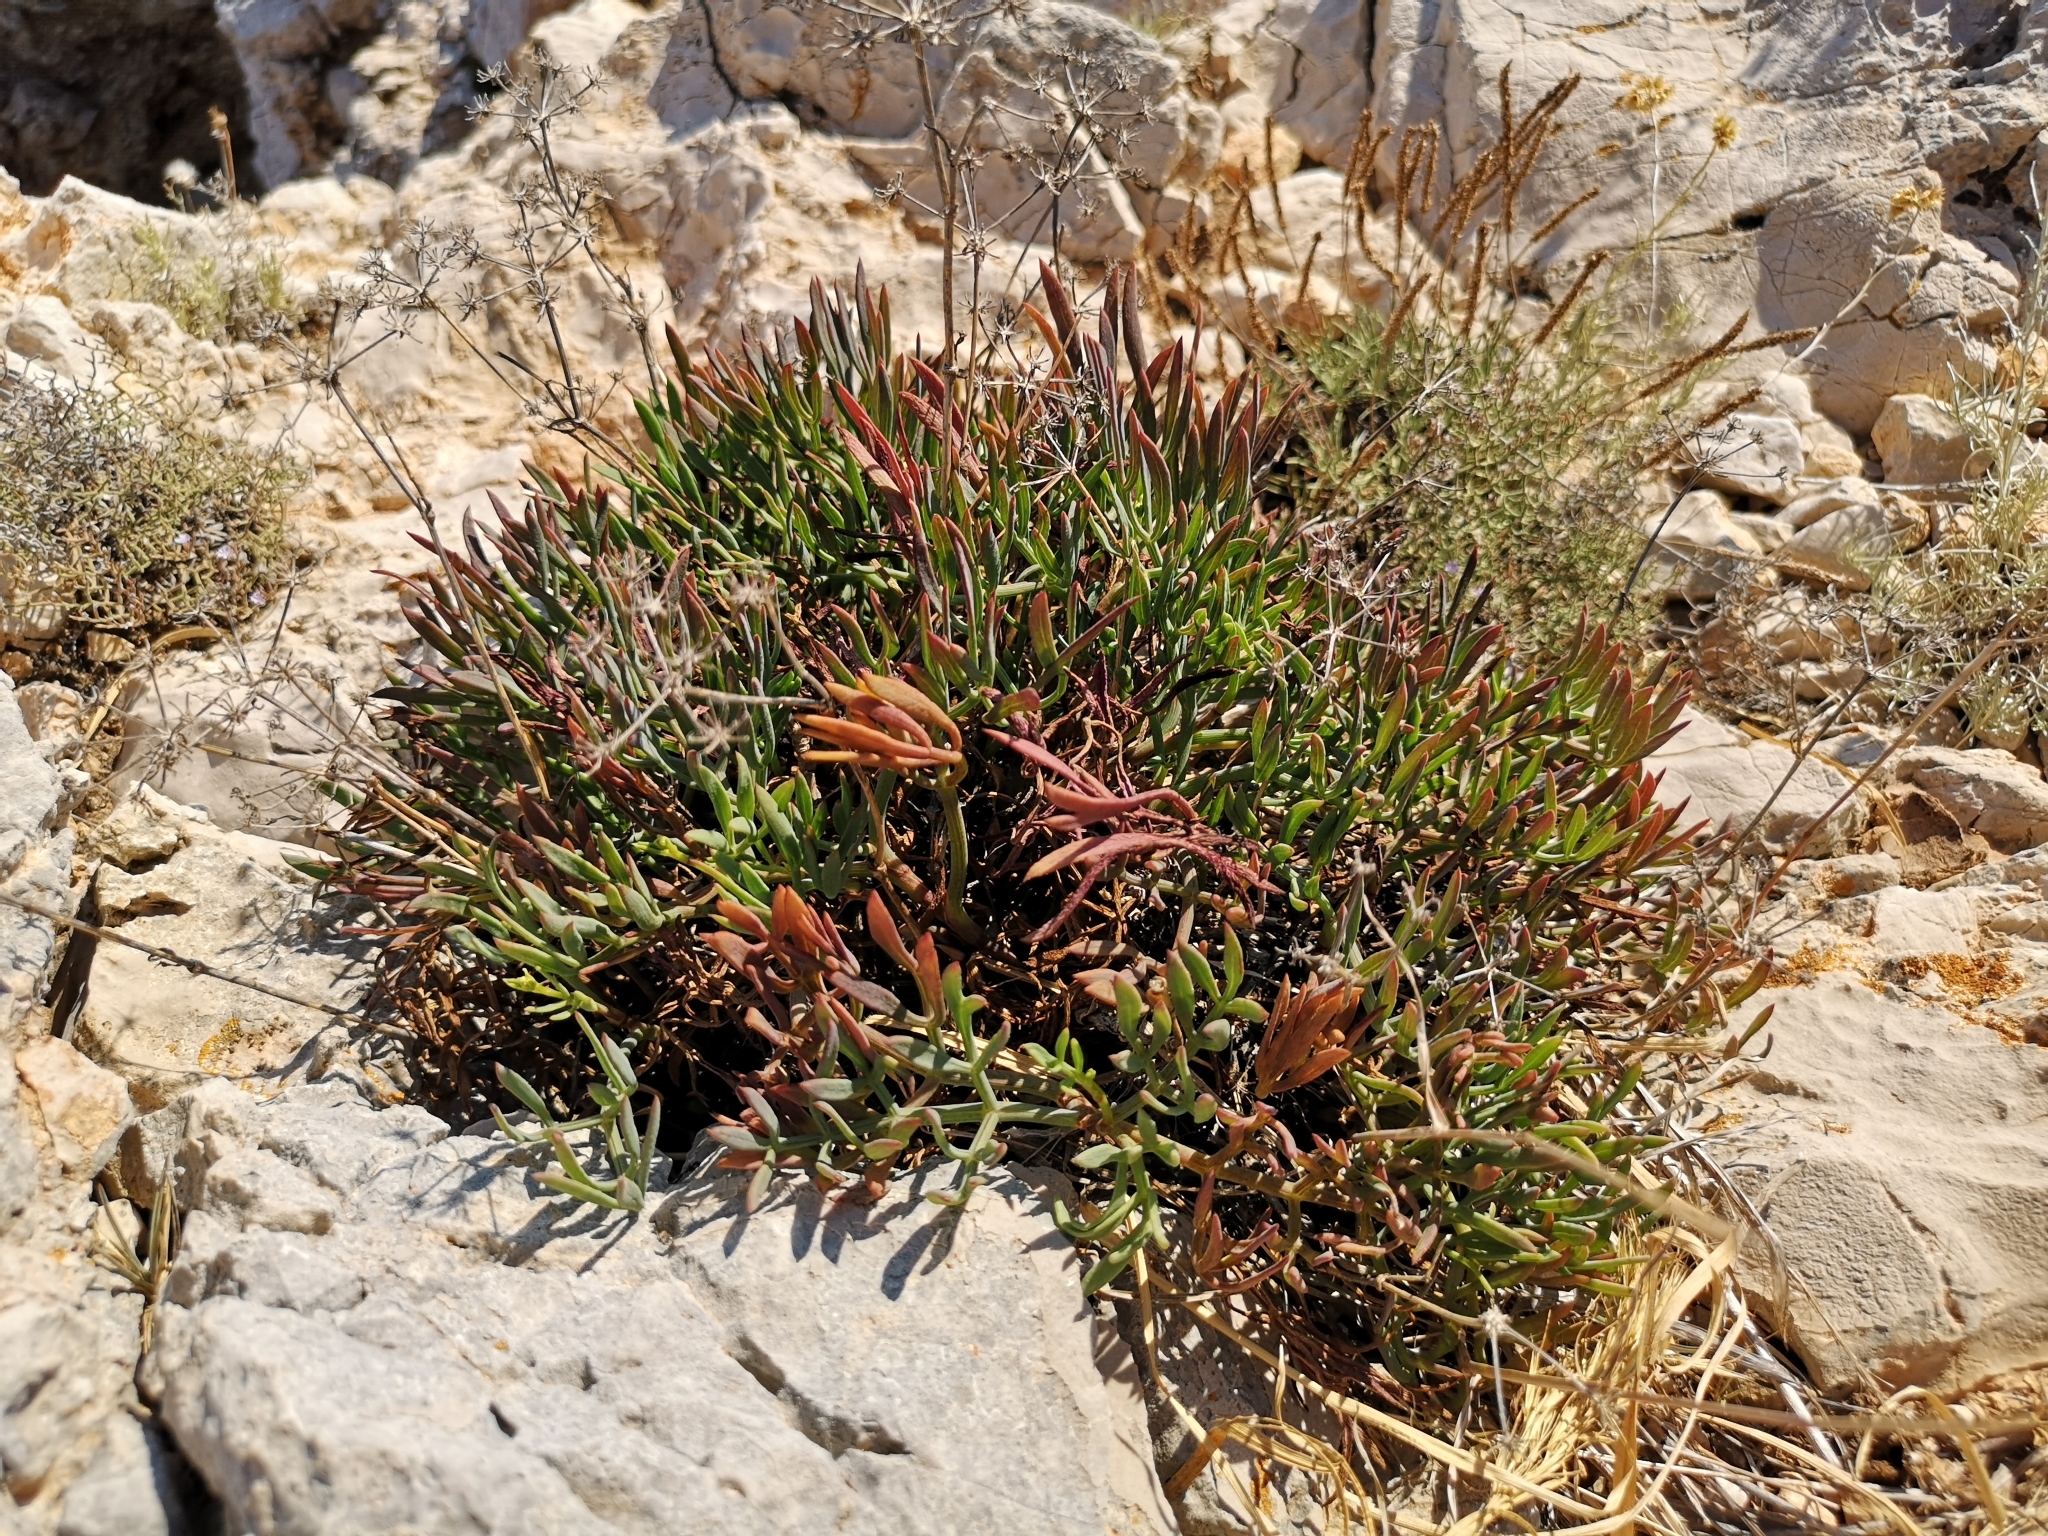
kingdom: Plantae
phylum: Tracheophyta
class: Magnoliopsida
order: Apiales
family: Apiaceae
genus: Crithmum
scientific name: Crithmum maritimum
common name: Rock samphire
